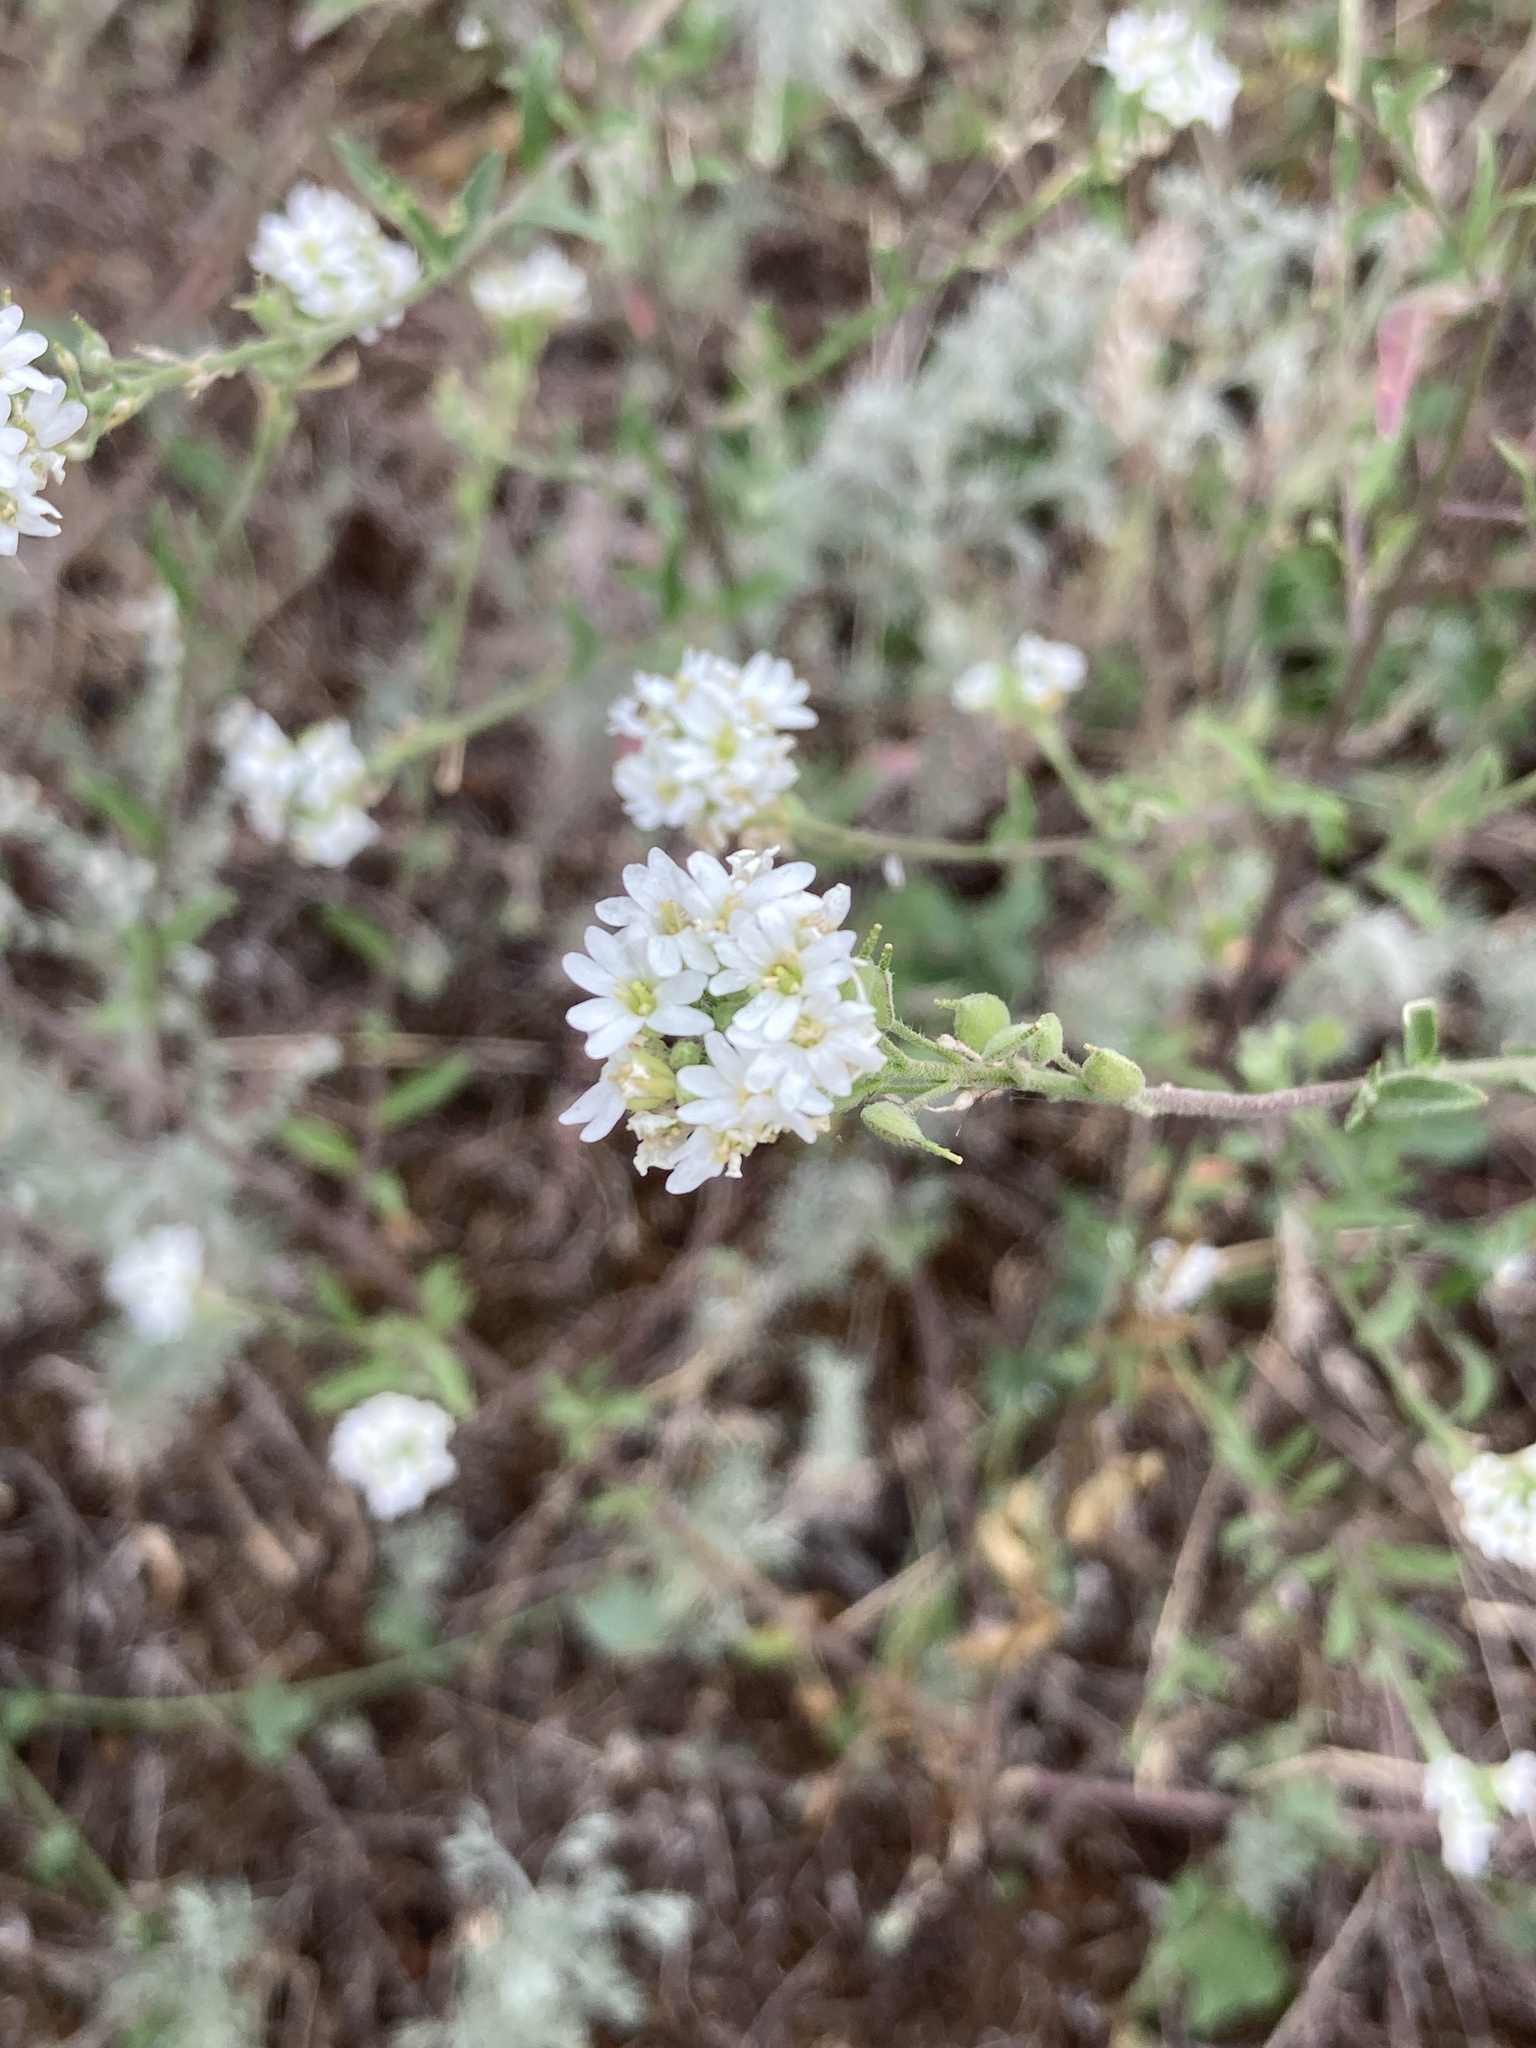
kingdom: Plantae
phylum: Tracheophyta
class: Magnoliopsida
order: Brassicales
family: Brassicaceae
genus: Berteroa
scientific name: Berteroa incana
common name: Hoary alison
